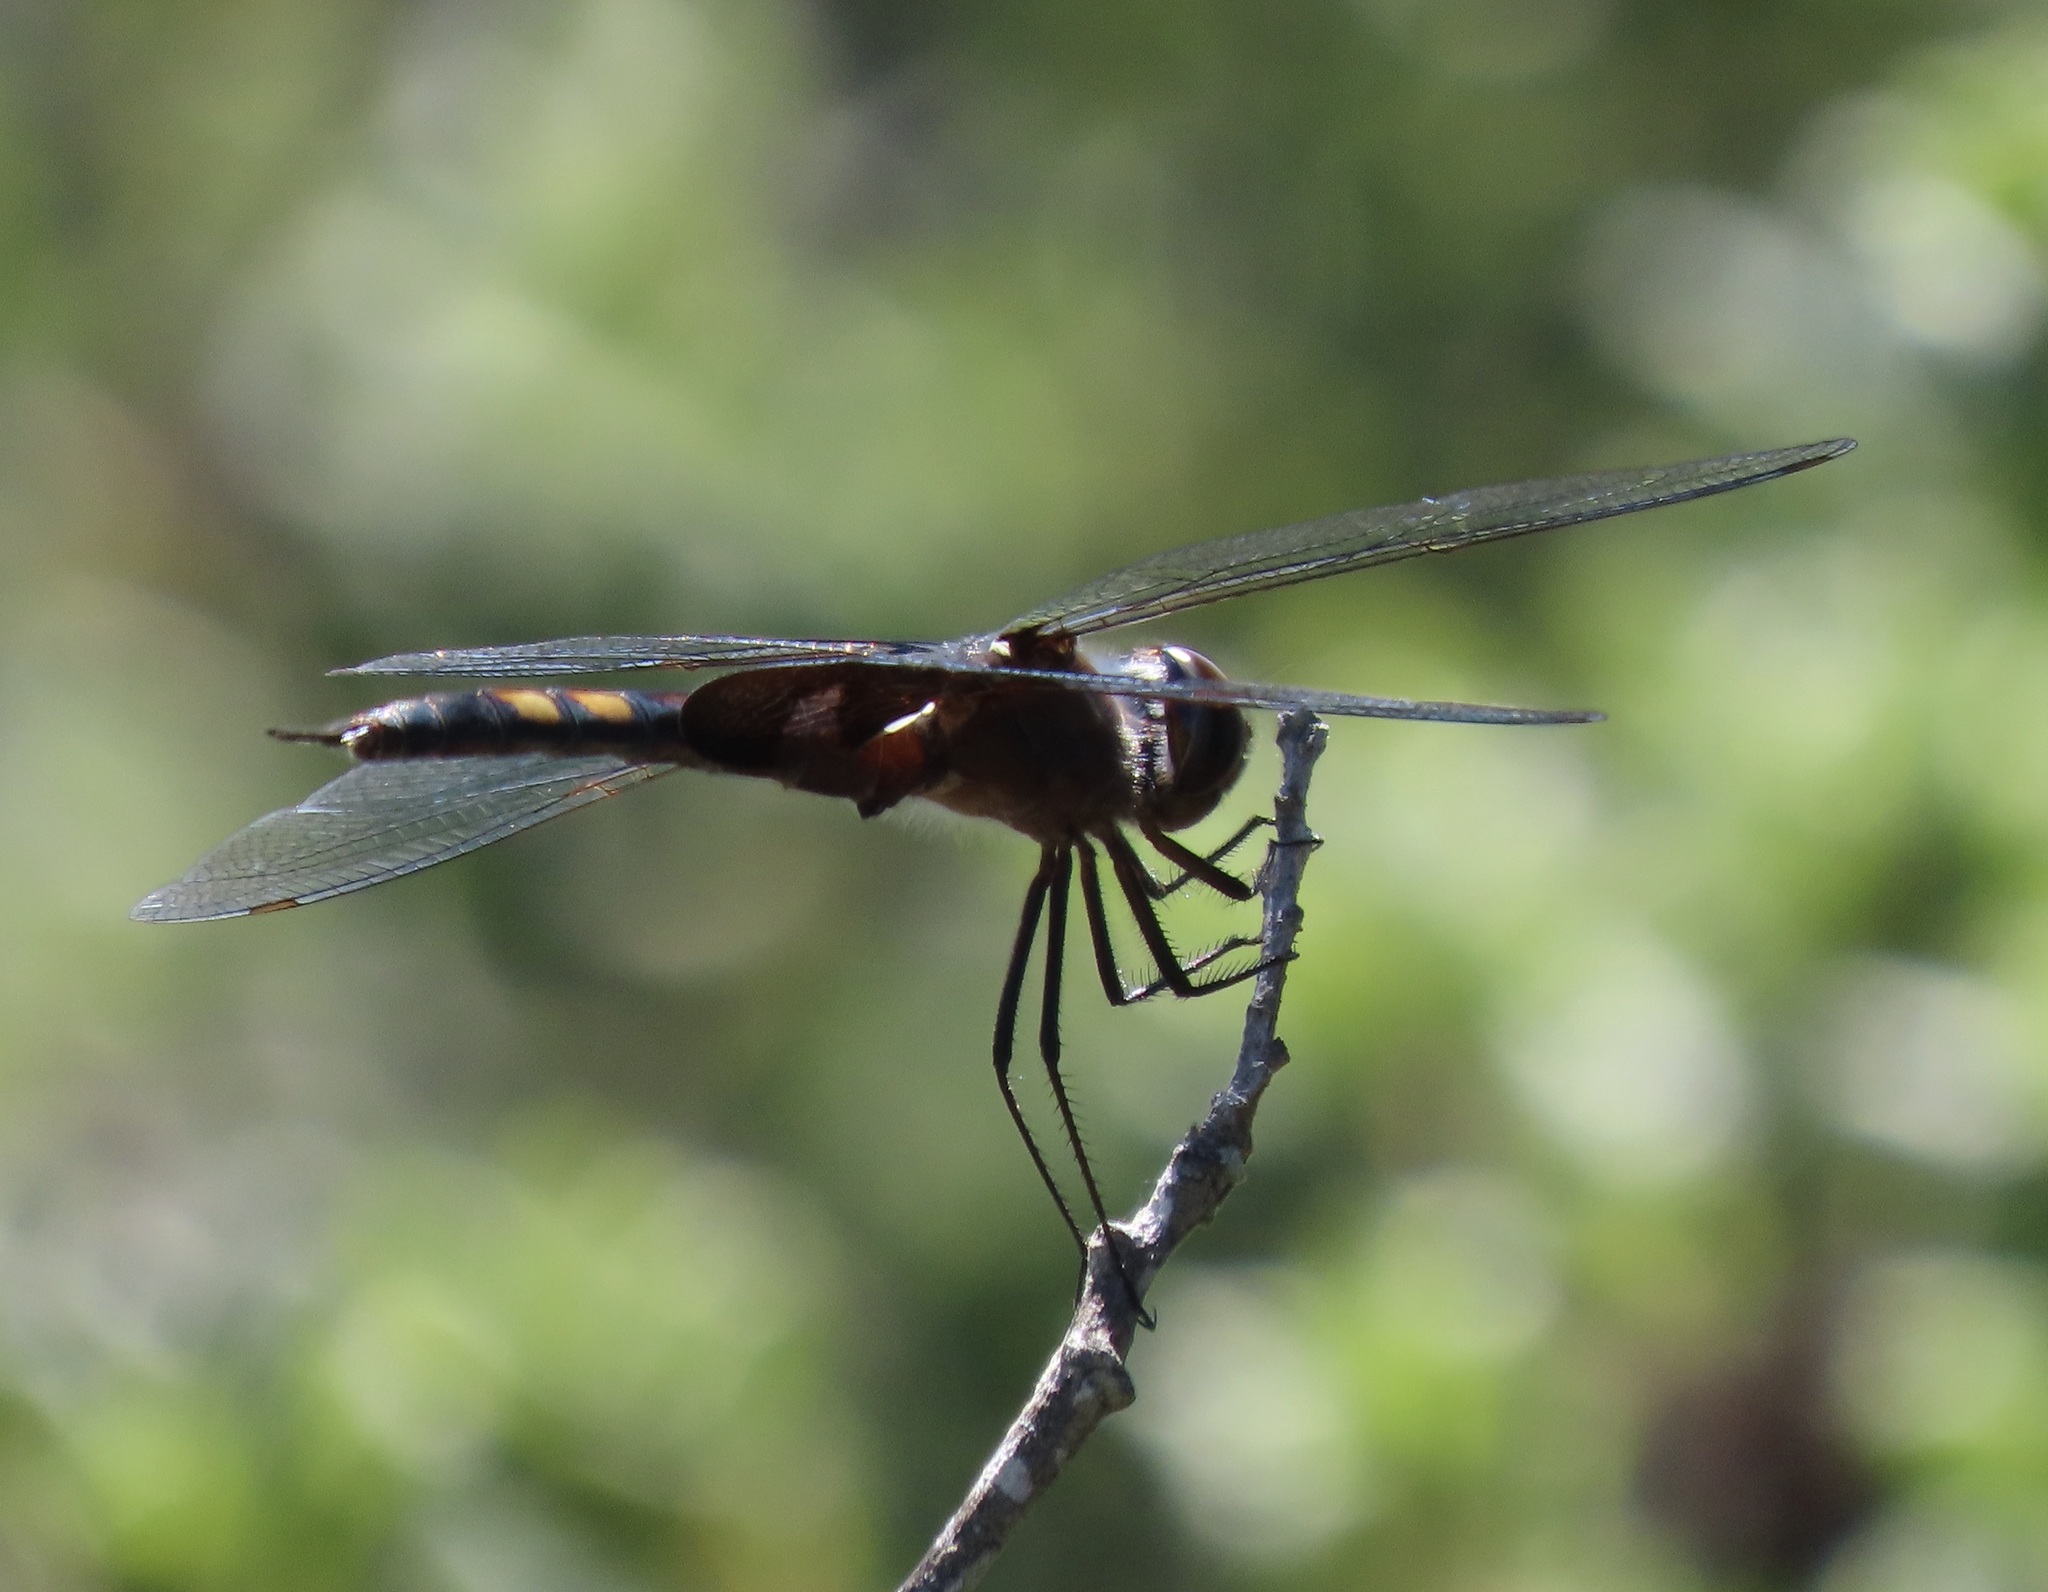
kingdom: Animalia
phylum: Arthropoda
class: Insecta
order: Odonata
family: Libellulidae
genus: Tramea
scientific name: Tramea lacerata
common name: Black saddlebags
